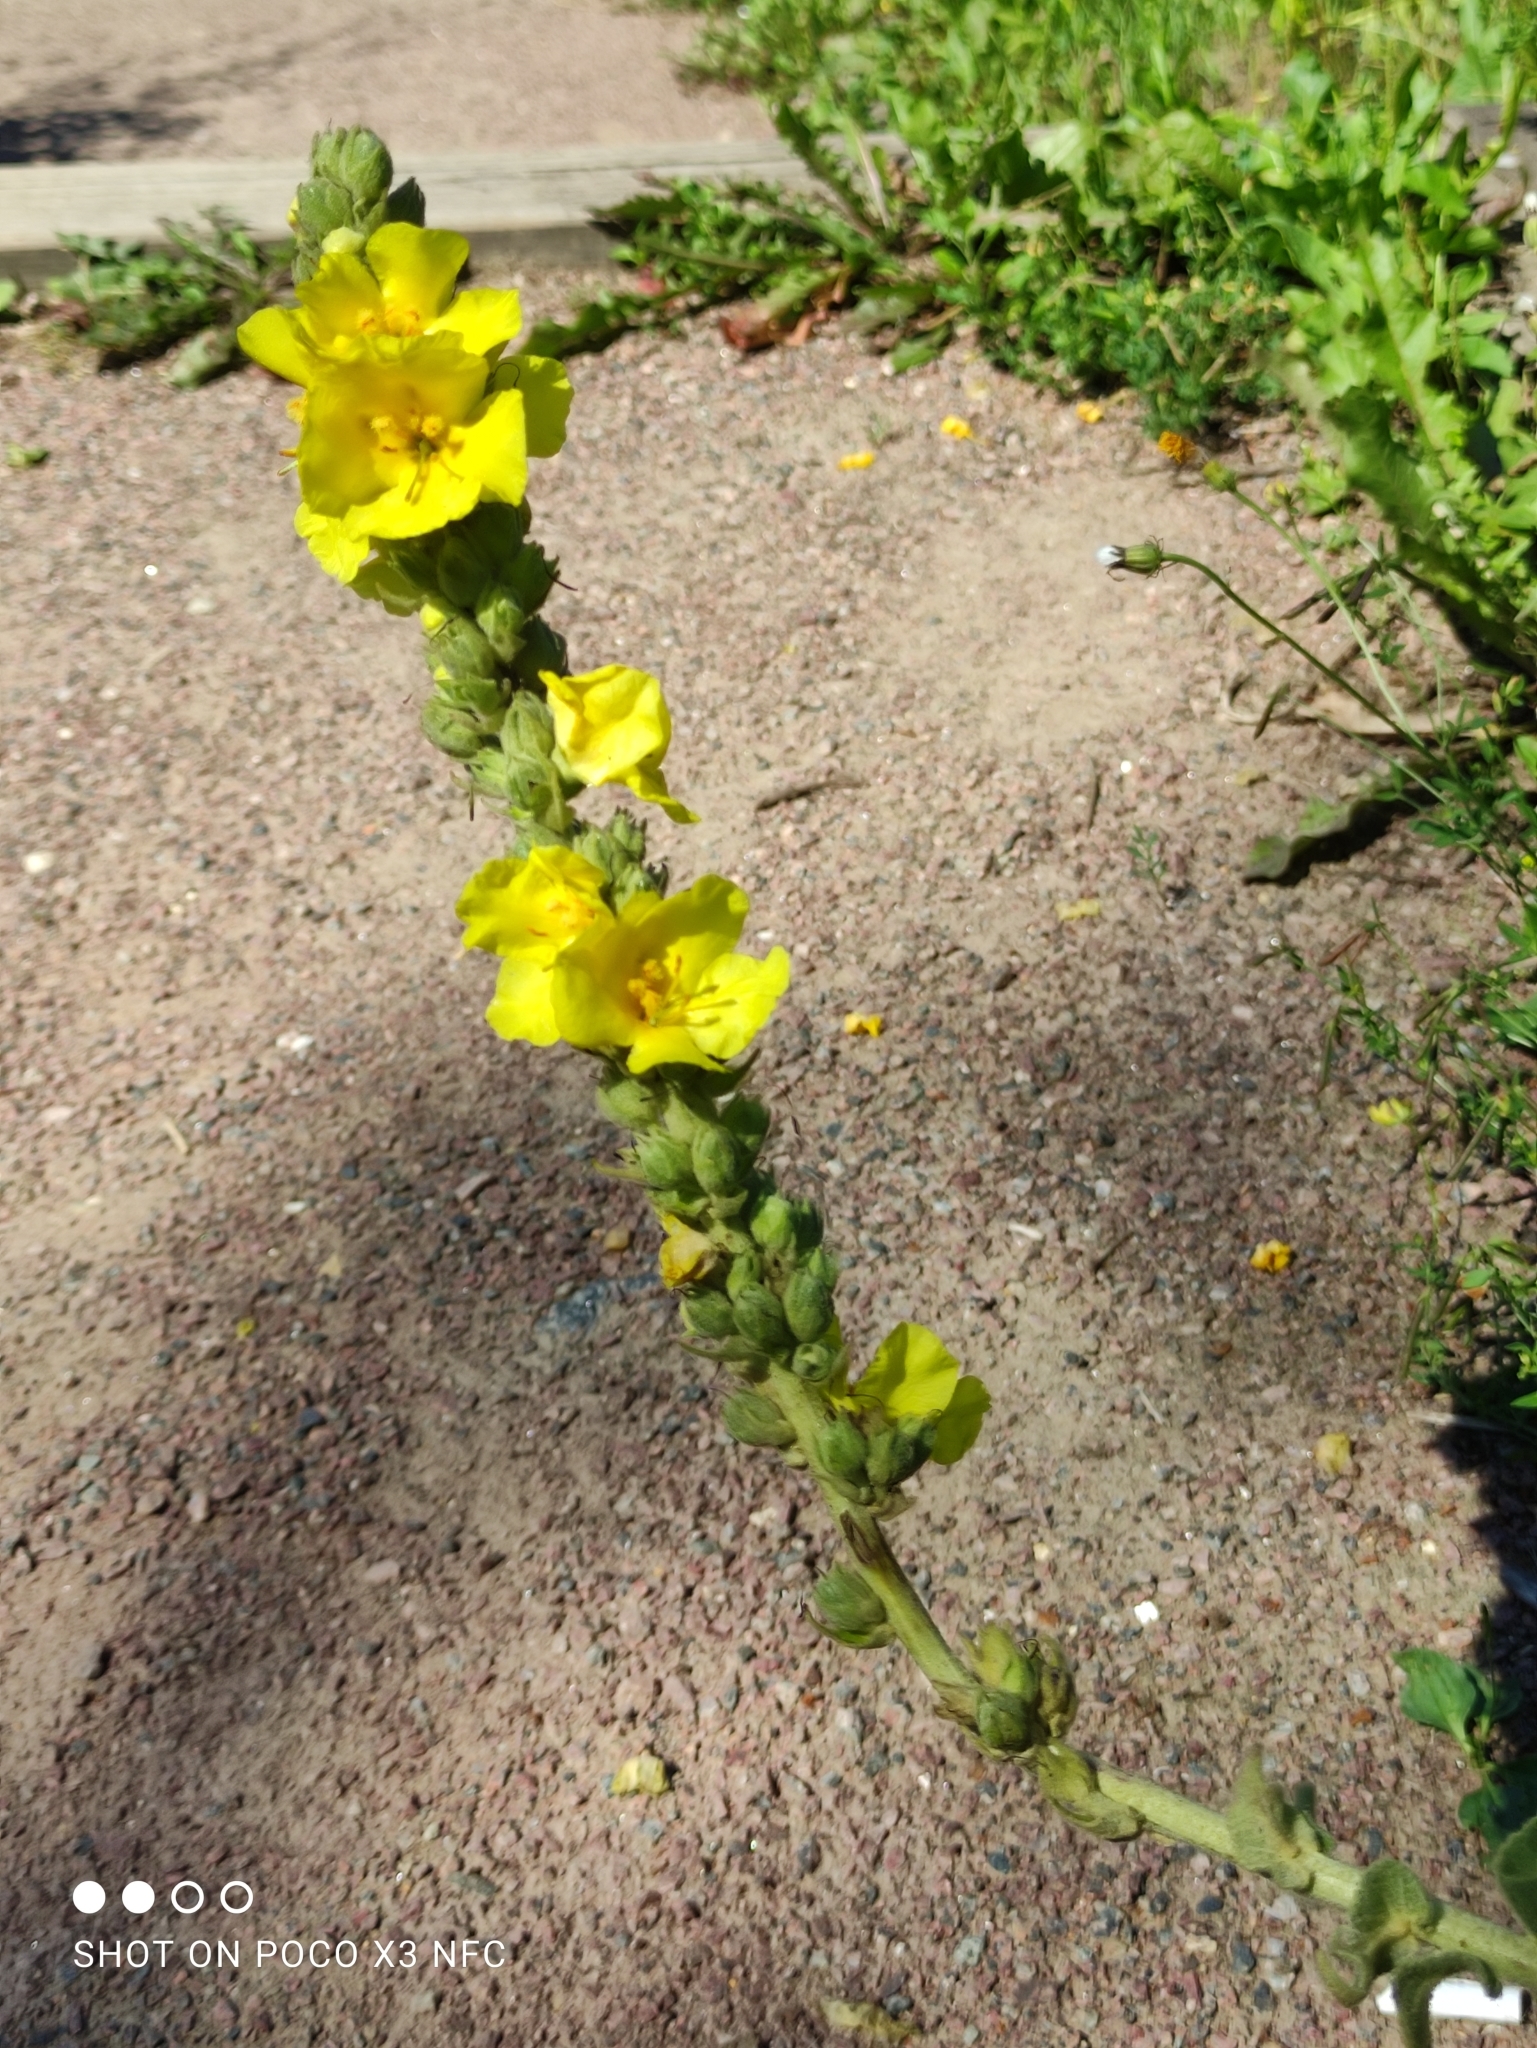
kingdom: Plantae
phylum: Tracheophyta
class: Magnoliopsida
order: Lamiales
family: Scrophulariaceae
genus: Verbascum
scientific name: Verbascum phlomoides
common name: Orange mullein
